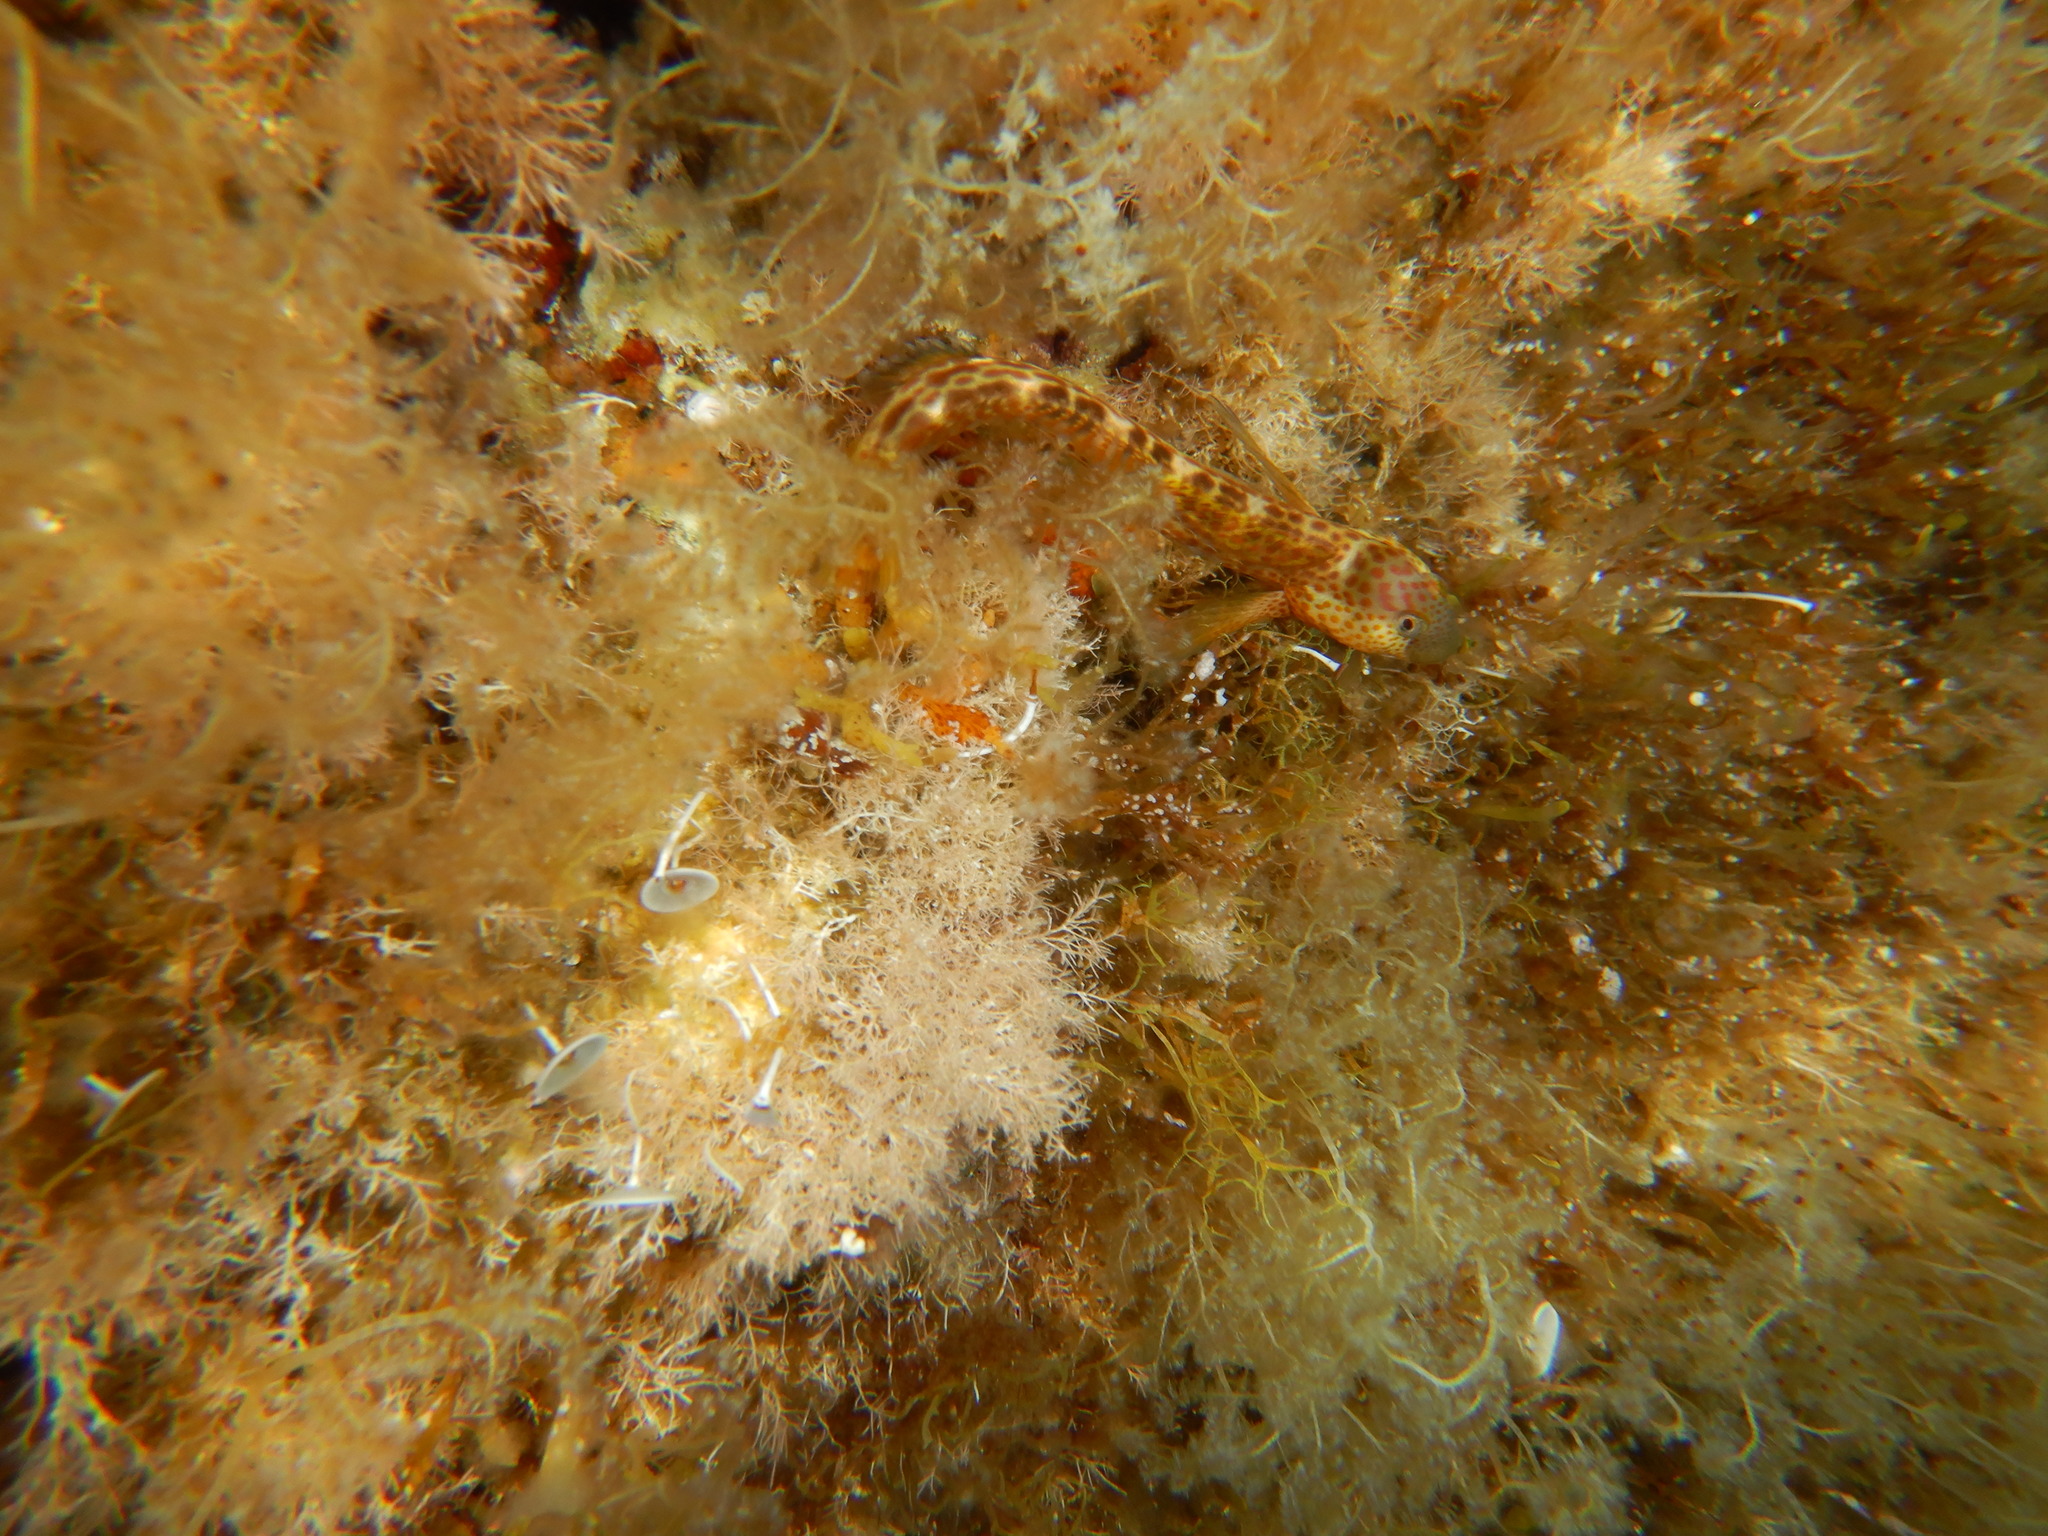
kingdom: Animalia
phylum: Chordata
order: Perciformes
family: Blenniidae
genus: Microlipophrys
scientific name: Microlipophrys canevae
